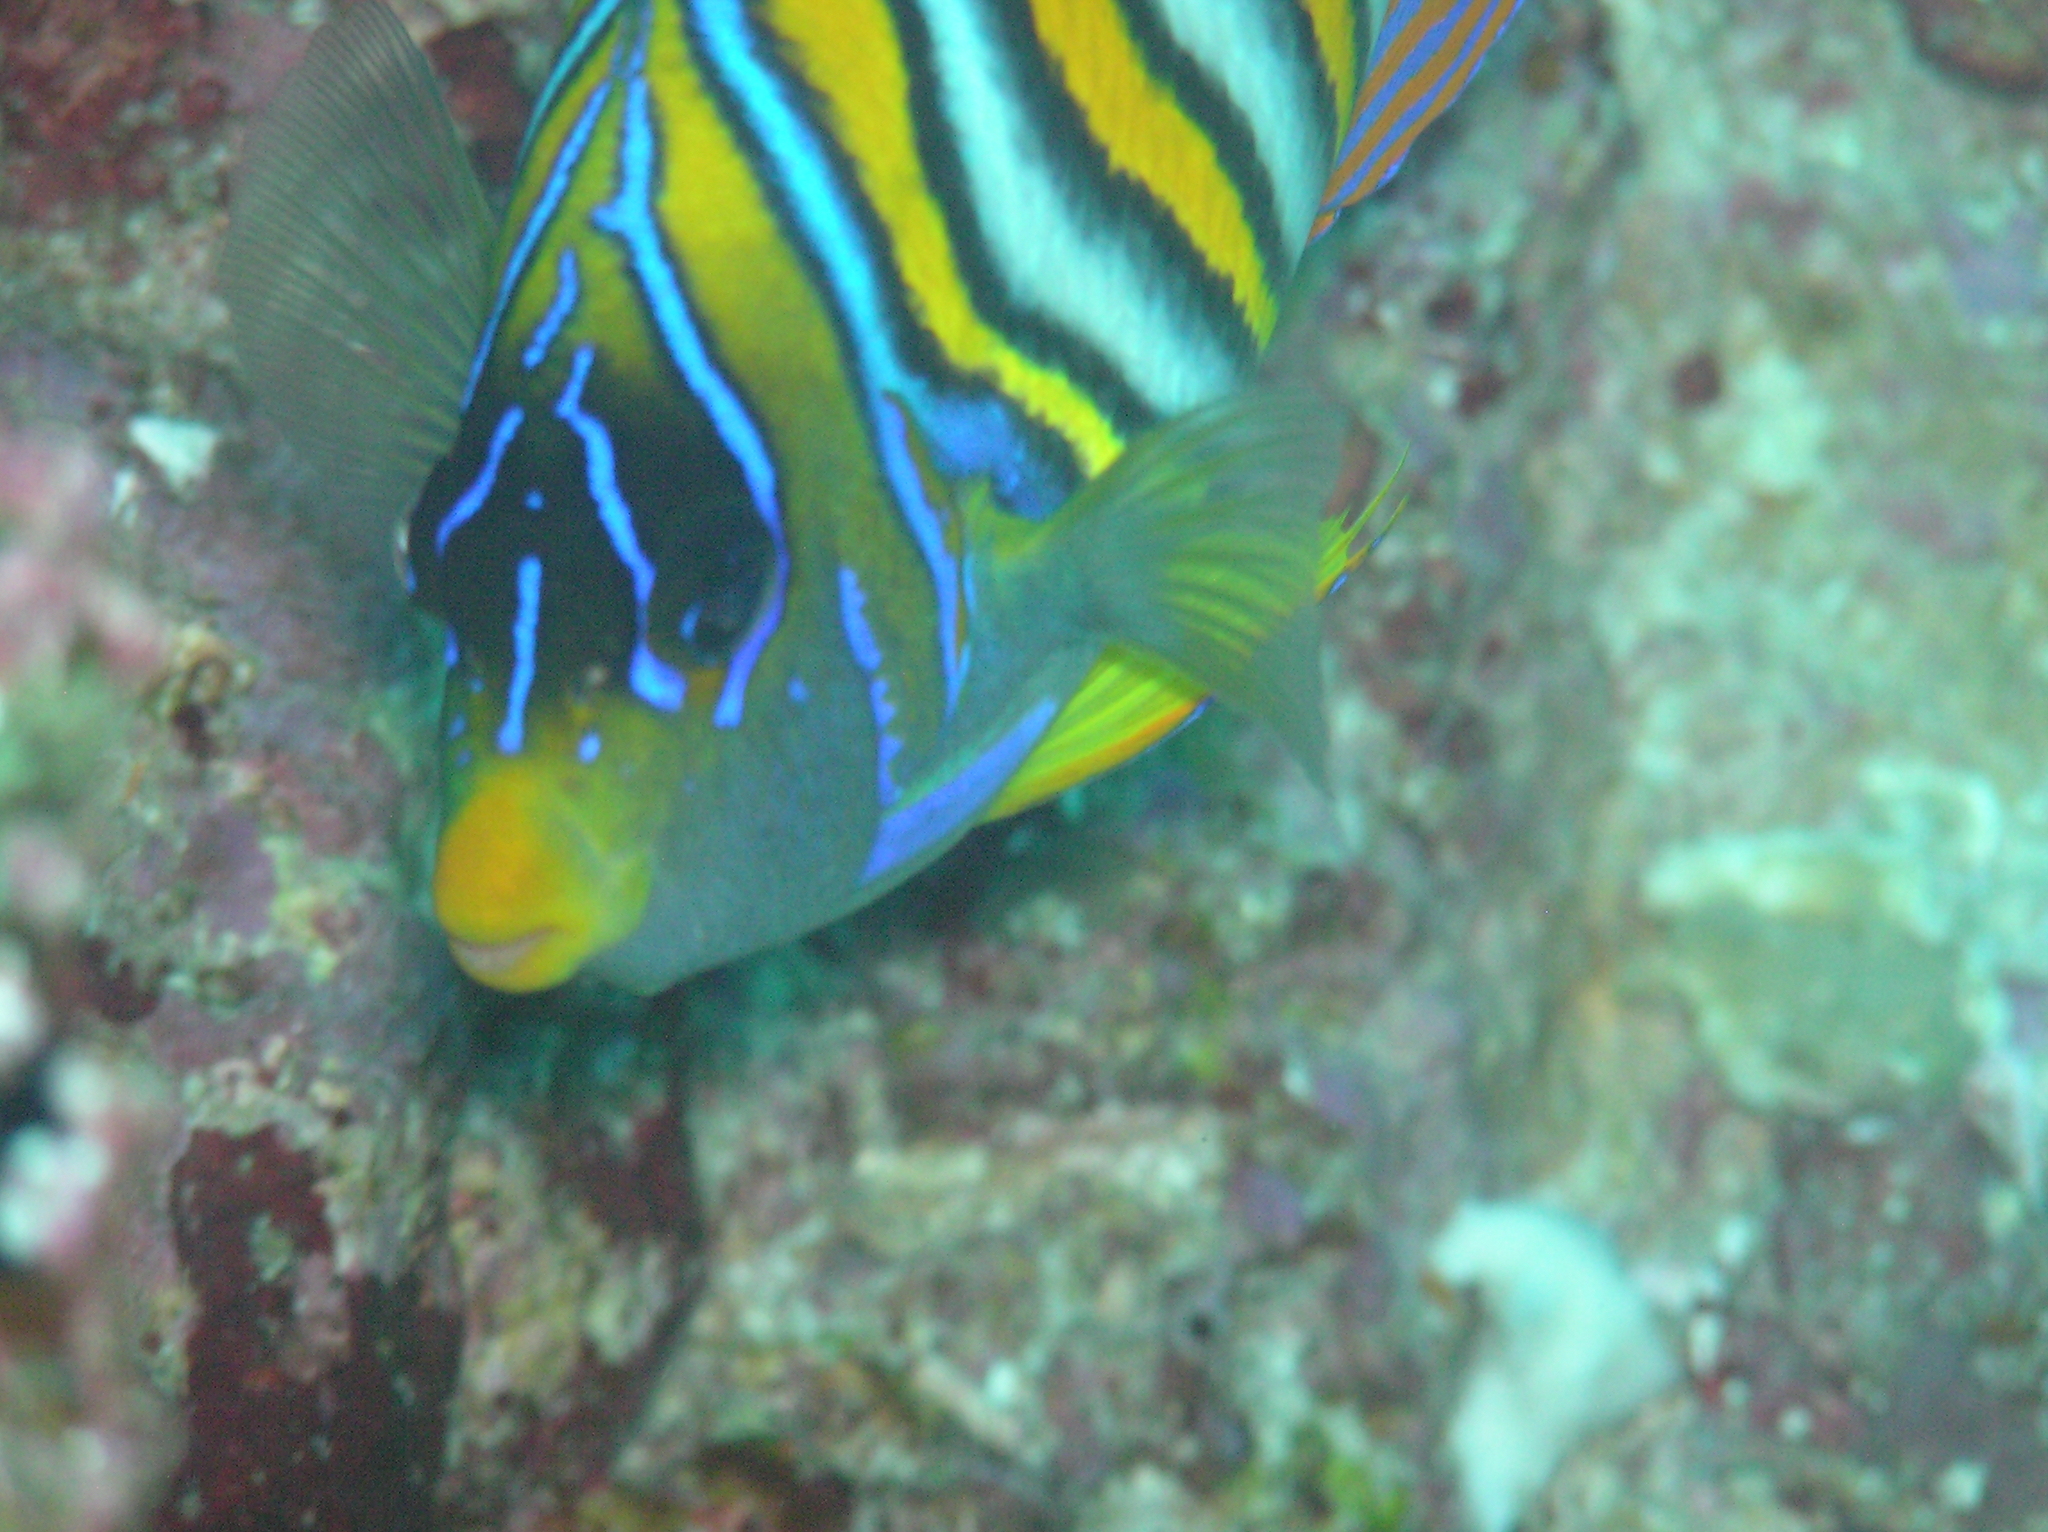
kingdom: Animalia
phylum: Chordata
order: Perciformes
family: Pomacanthidae
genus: Pygoplites
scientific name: Pygoplites diacanthus
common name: Regal angelfish
